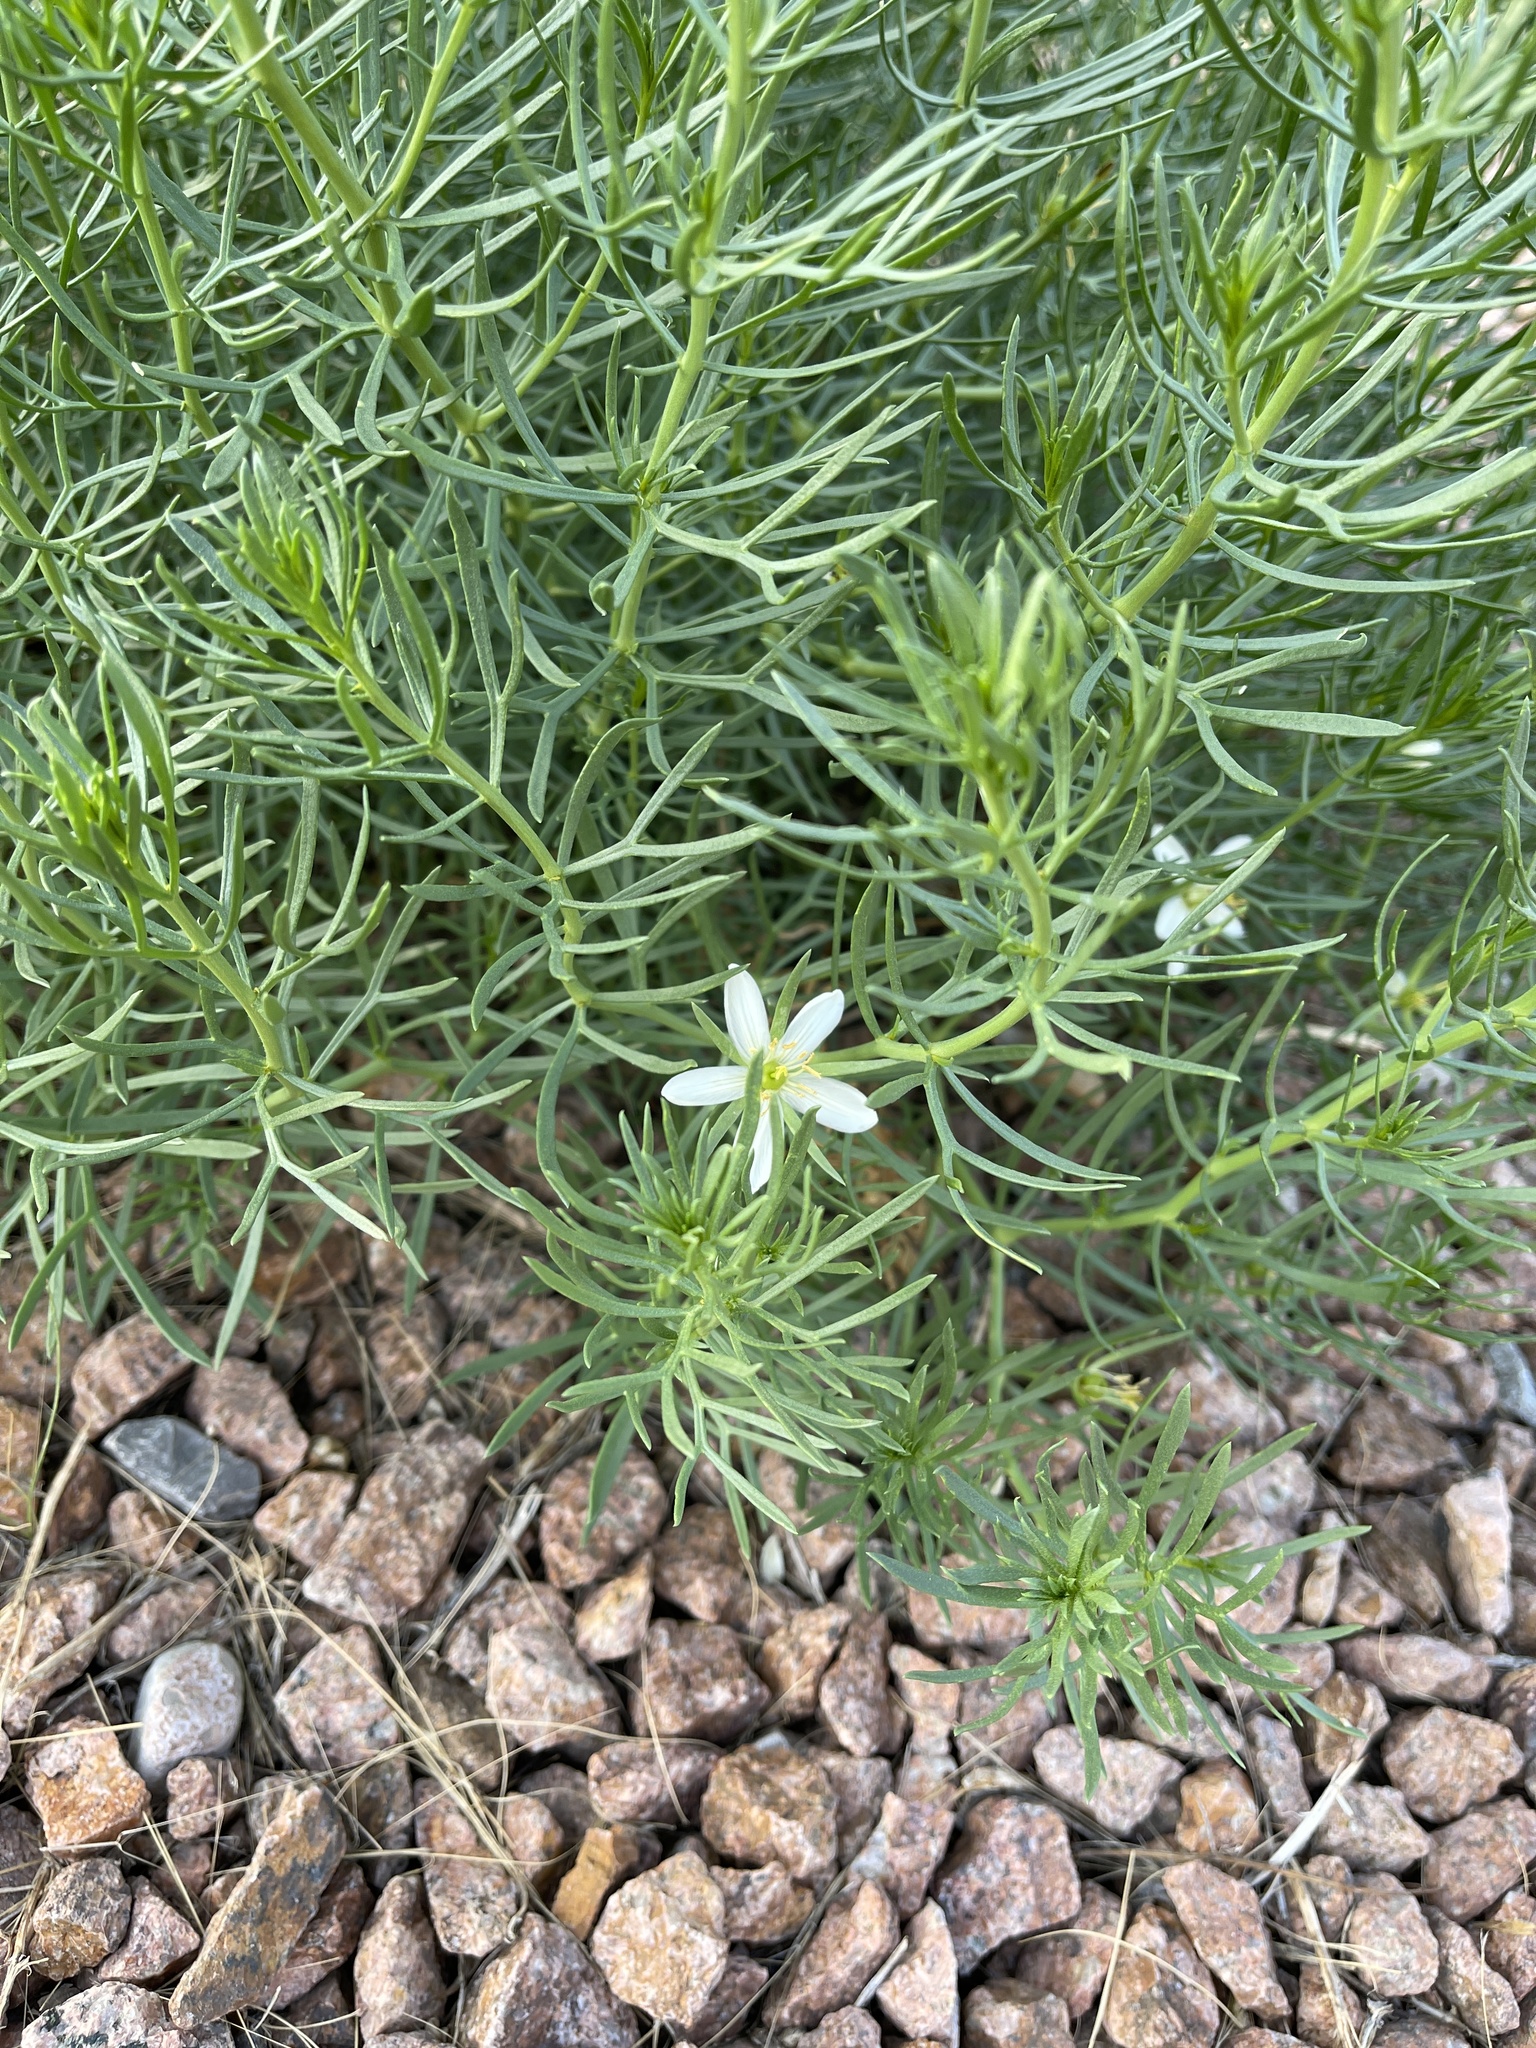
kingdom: Plantae
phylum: Tracheophyta
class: Magnoliopsida
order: Sapindales
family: Tetradiclidaceae
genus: Peganum
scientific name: Peganum harmala
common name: Harmal peganum
